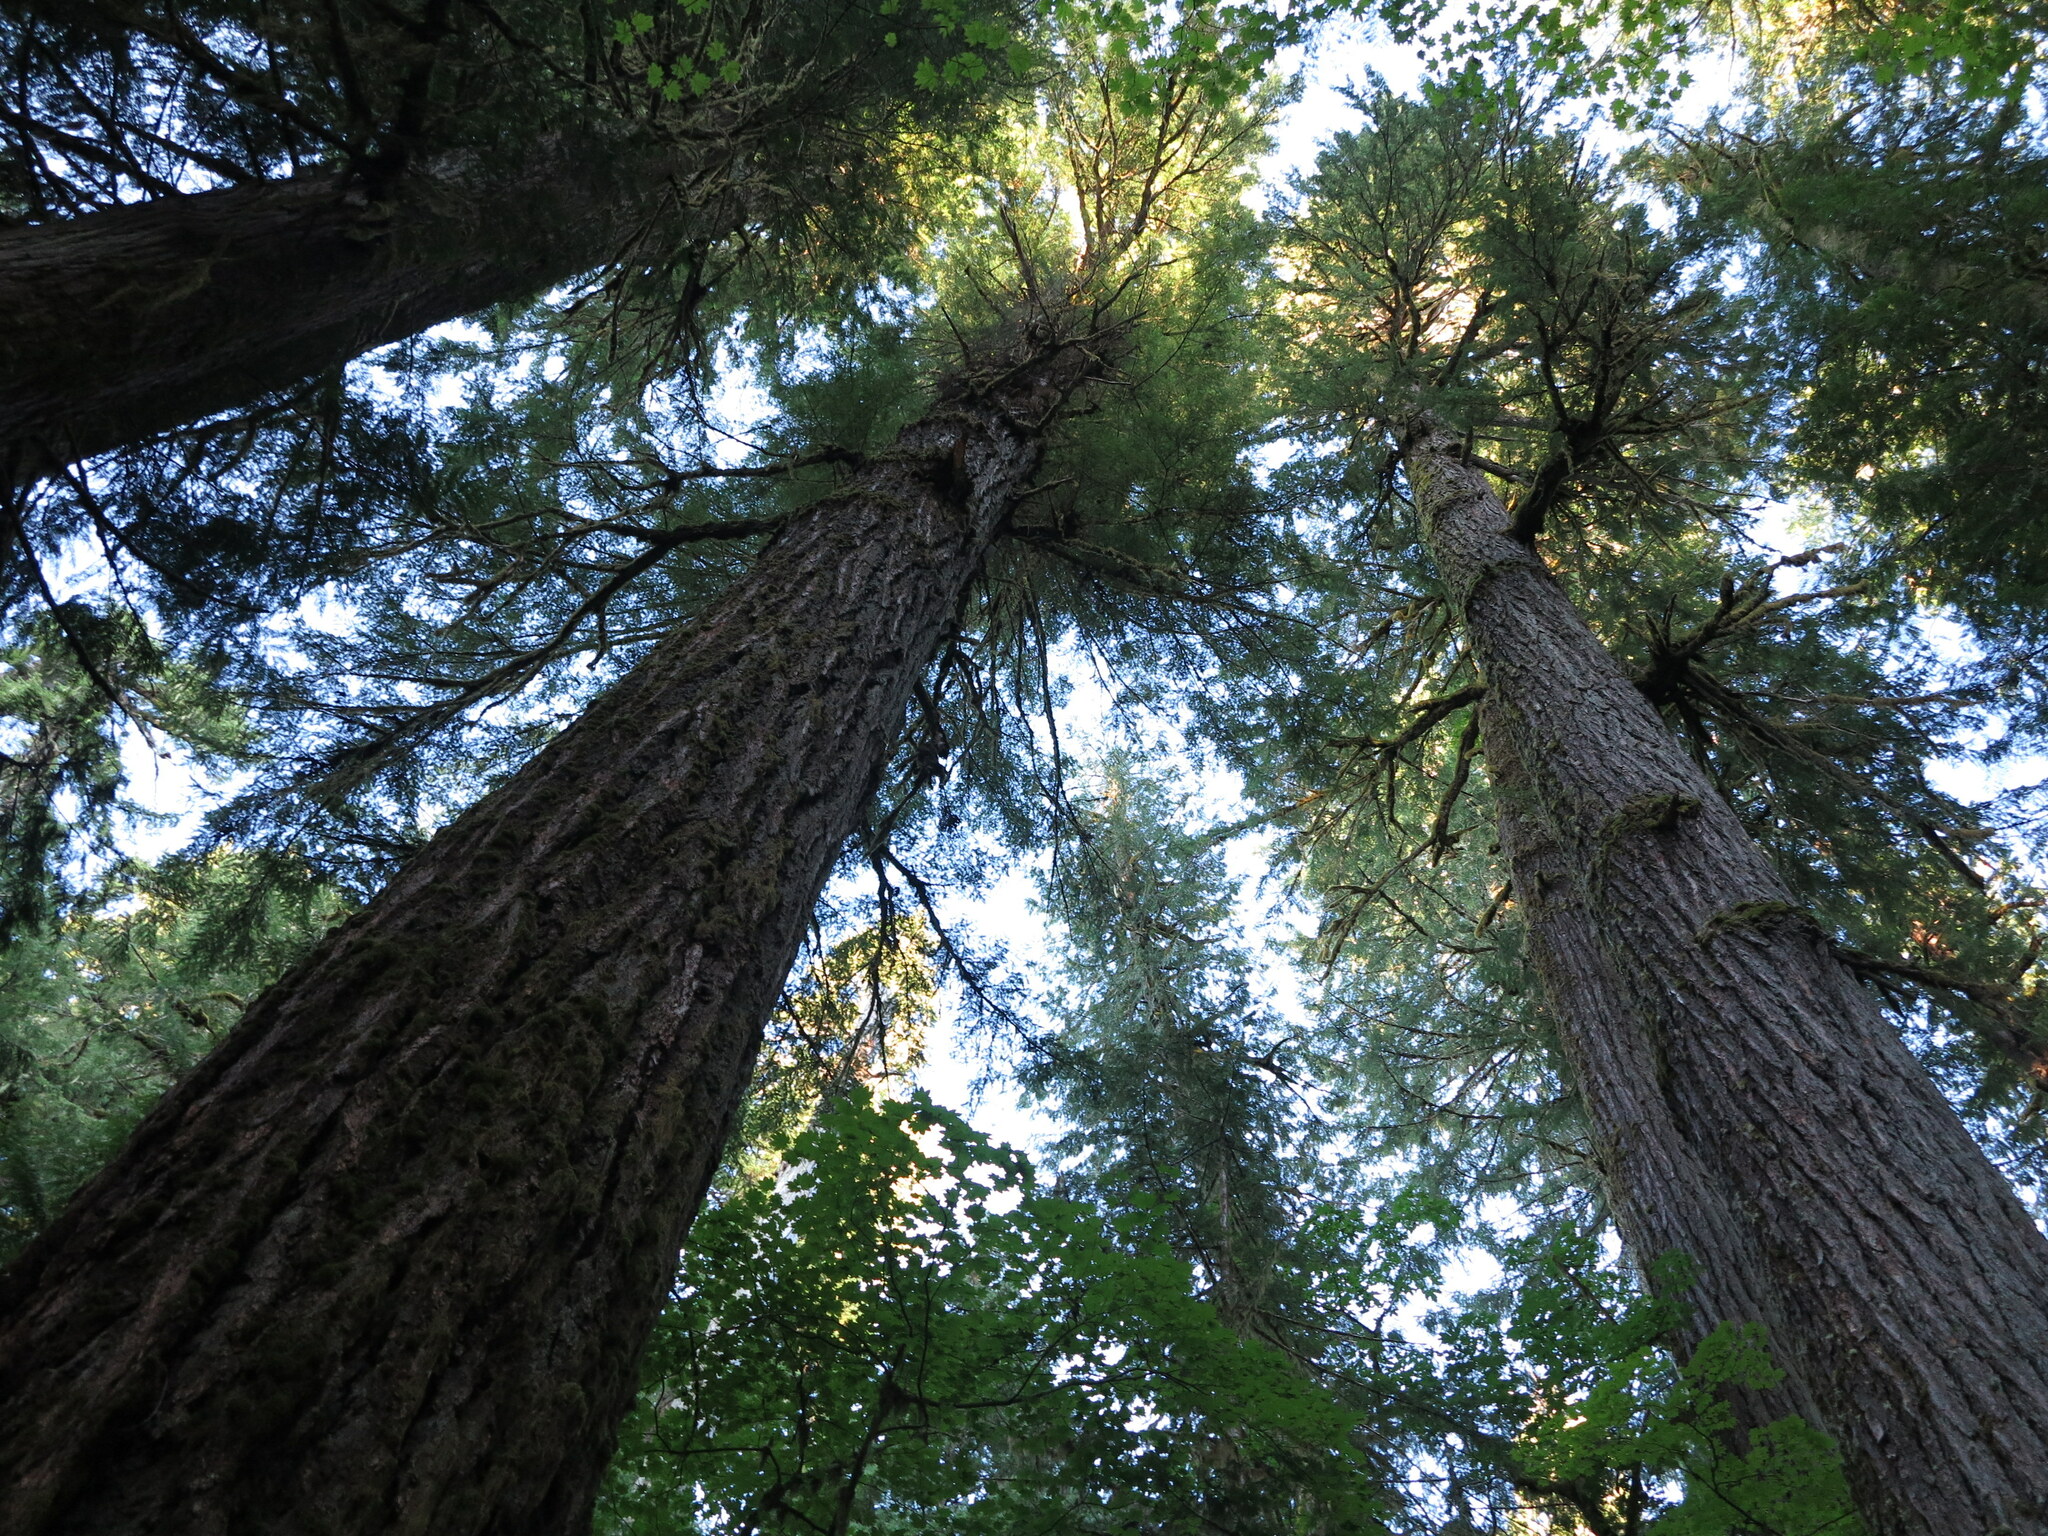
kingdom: Plantae
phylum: Tracheophyta
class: Pinopsida
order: Pinales
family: Pinaceae
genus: Pseudotsuga
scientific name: Pseudotsuga menziesii
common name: Douglas fir
